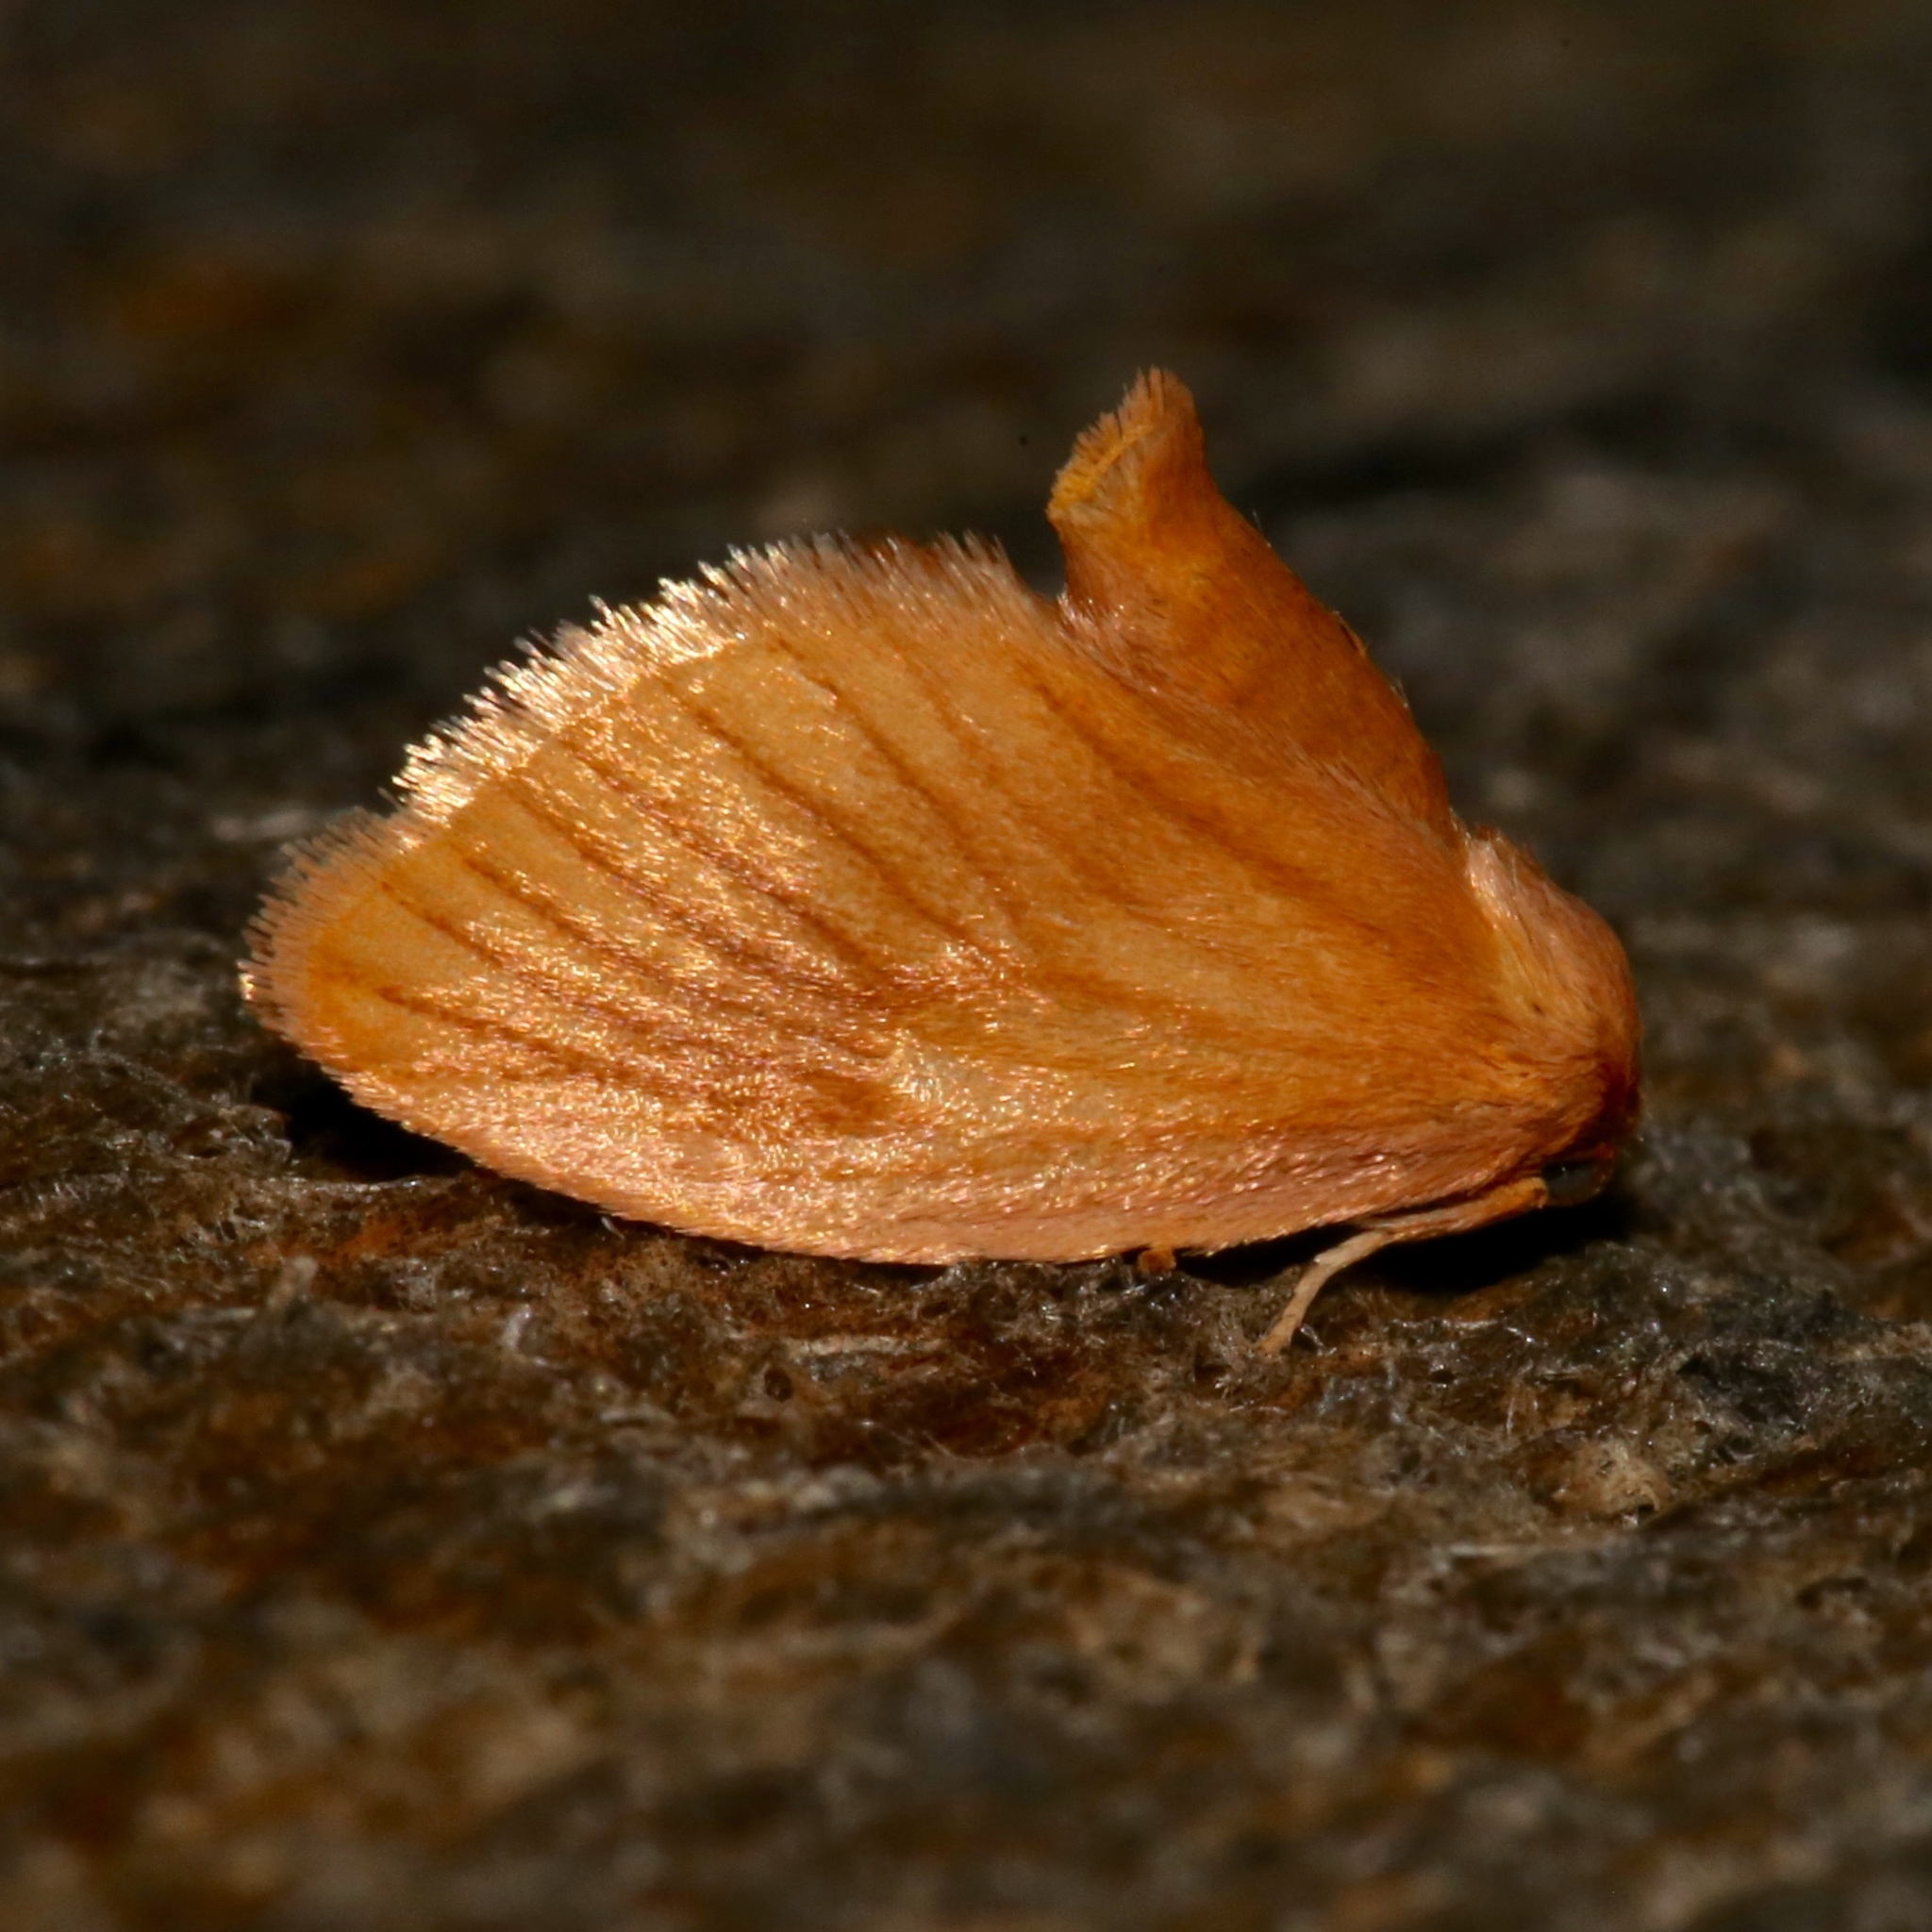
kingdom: Animalia
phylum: Arthropoda
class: Insecta
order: Lepidoptera
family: Limacodidae
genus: Tortricidia
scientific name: Tortricidia testacea
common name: Early button slug moth
